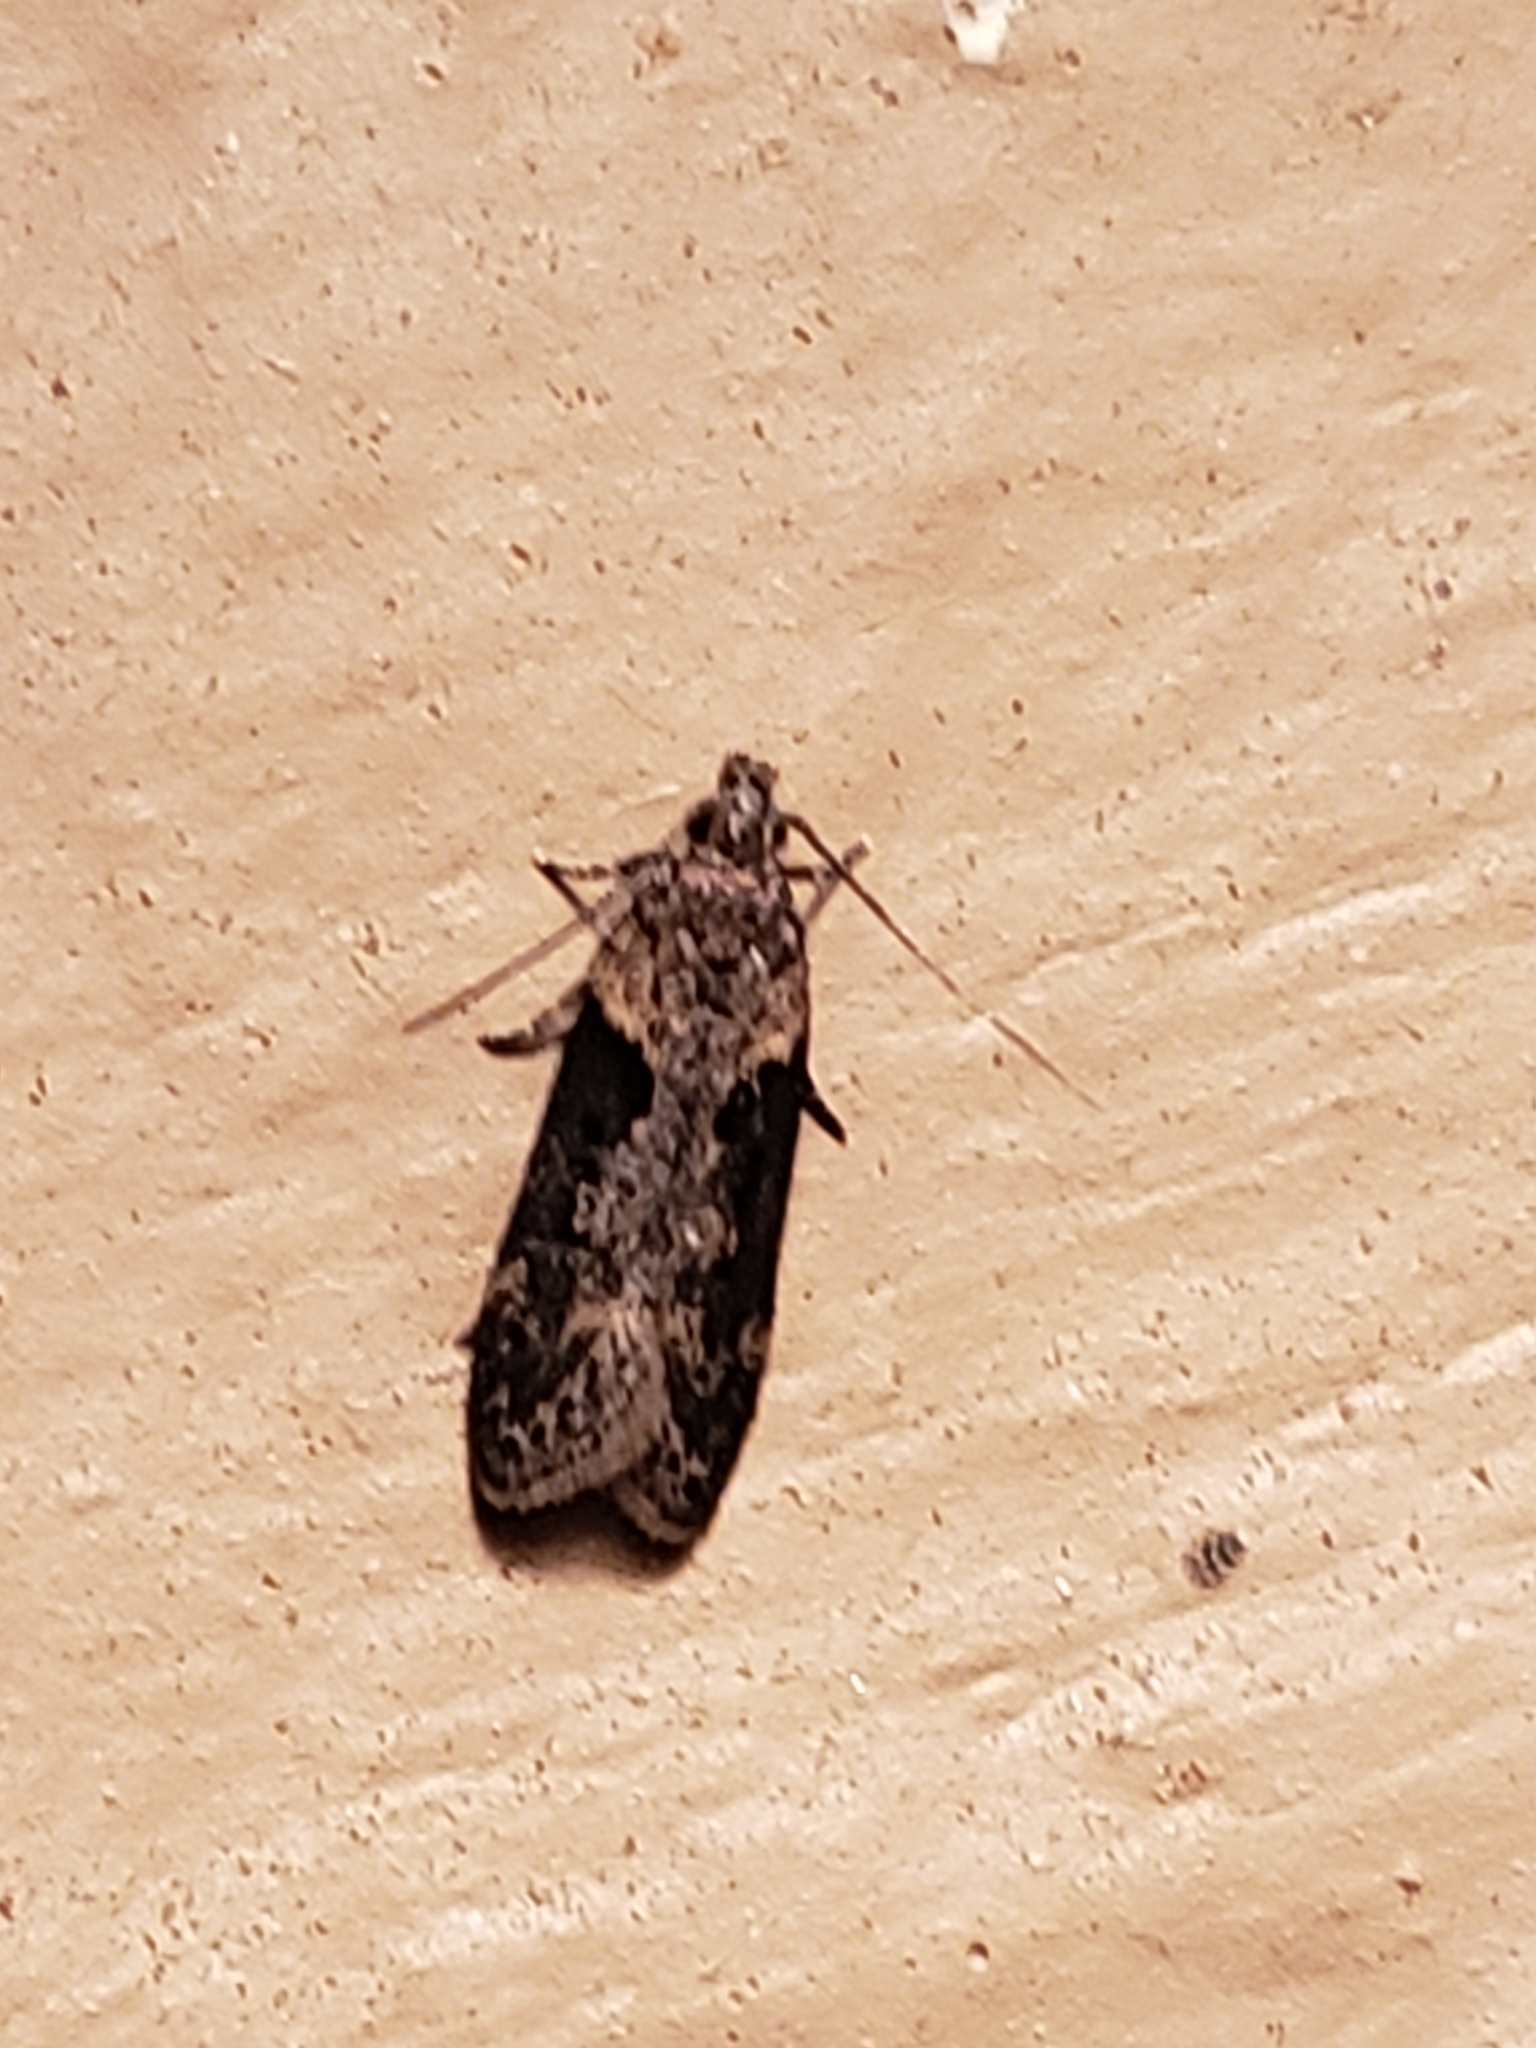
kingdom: Animalia
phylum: Arthropoda
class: Insecta
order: Lepidoptera
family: Gelechiidae
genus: Chionodes
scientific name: Chionodes mediofuscella
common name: Black-smudged chionodes moth
